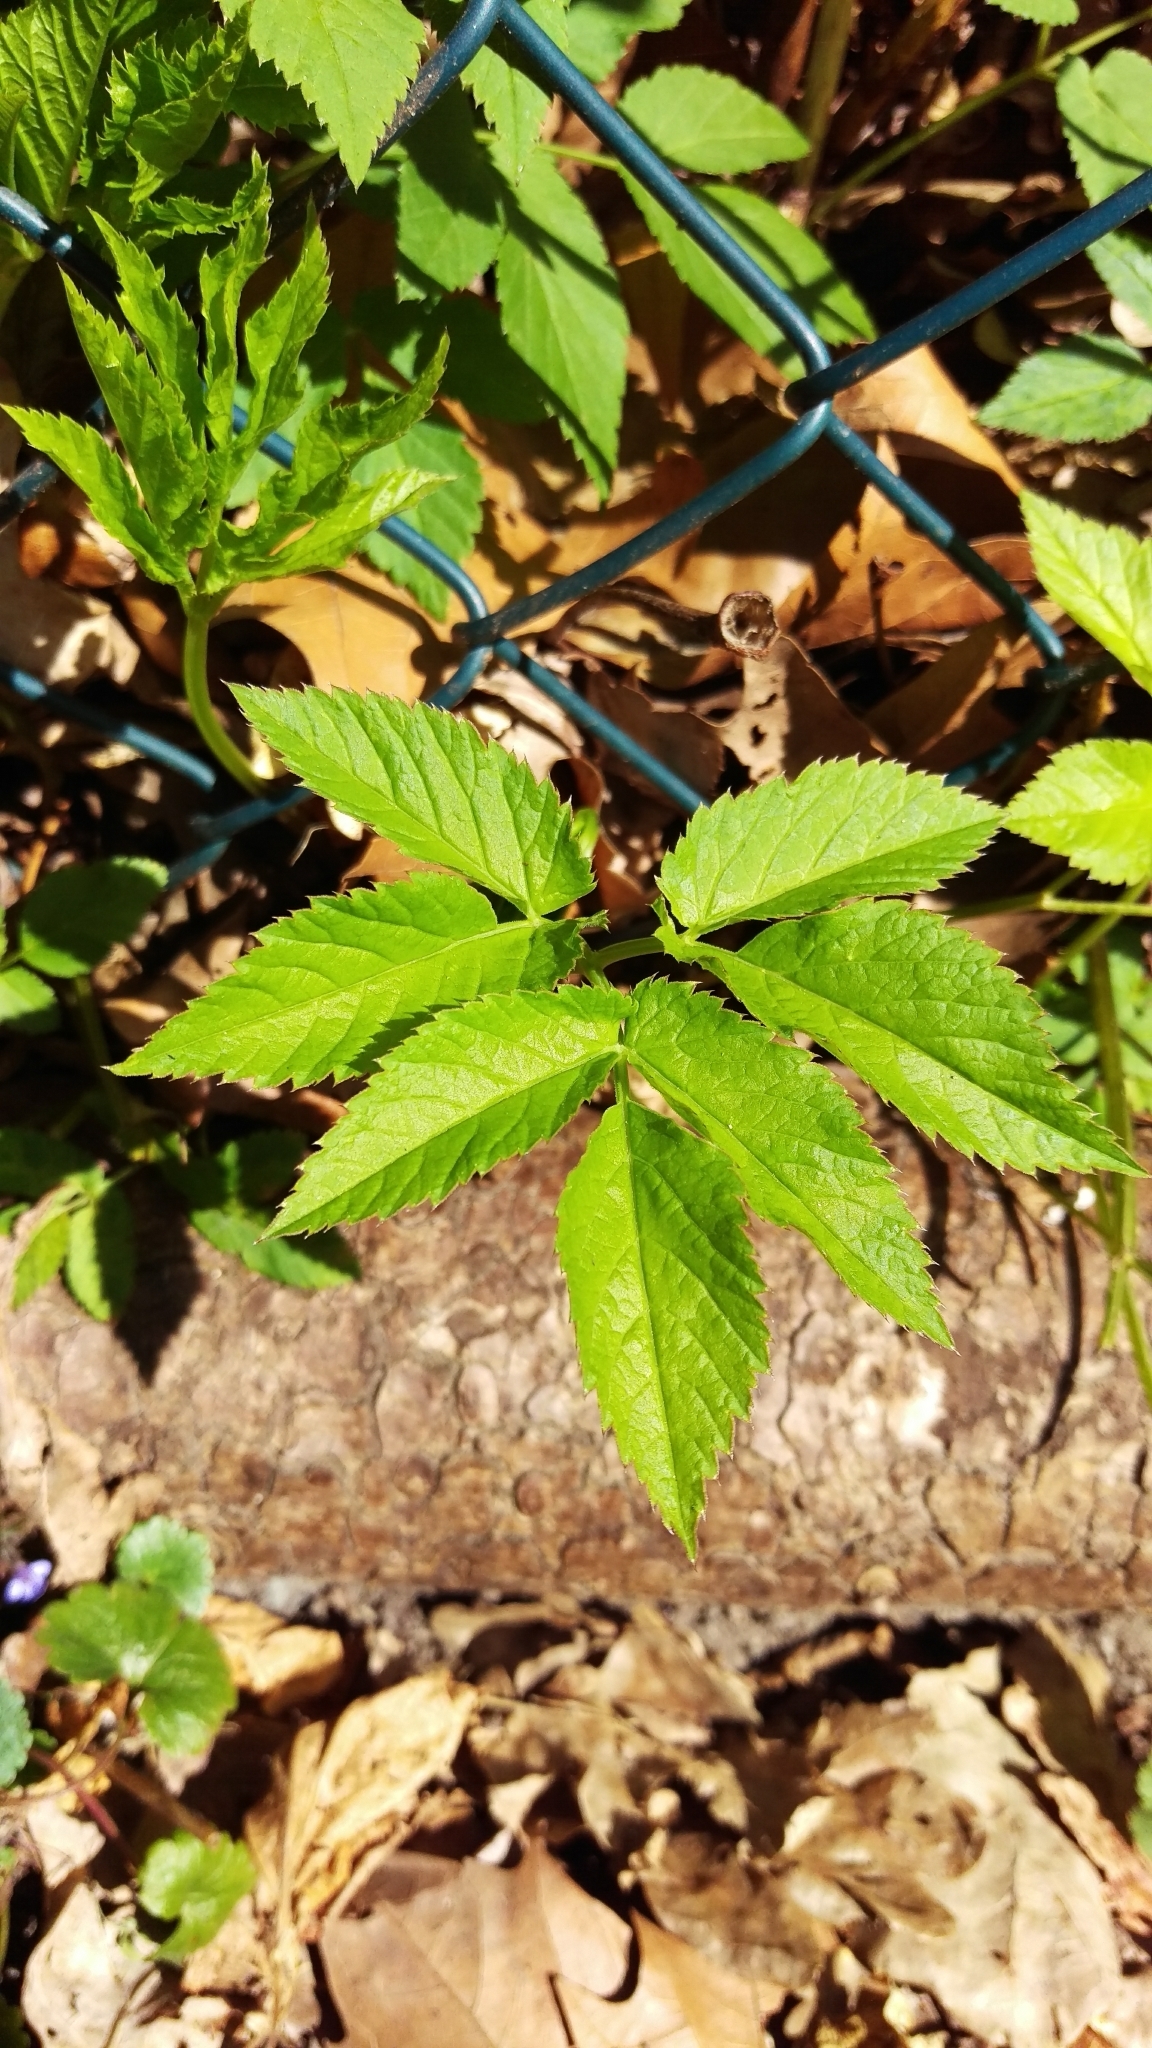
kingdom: Plantae
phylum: Tracheophyta
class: Magnoliopsida
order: Apiales
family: Apiaceae
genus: Aegopodium
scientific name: Aegopodium podagraria
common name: Ground-elder
